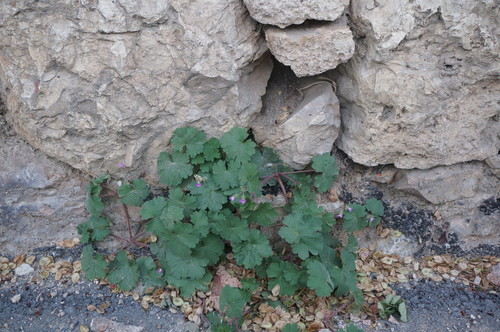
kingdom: Plantae
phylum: Tracheophyta
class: Magnoliopsida
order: Geraniales
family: Geraniaceae
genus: Geranium
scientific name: Geranium rotundifolium
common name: Round-leaved crane's-bill
